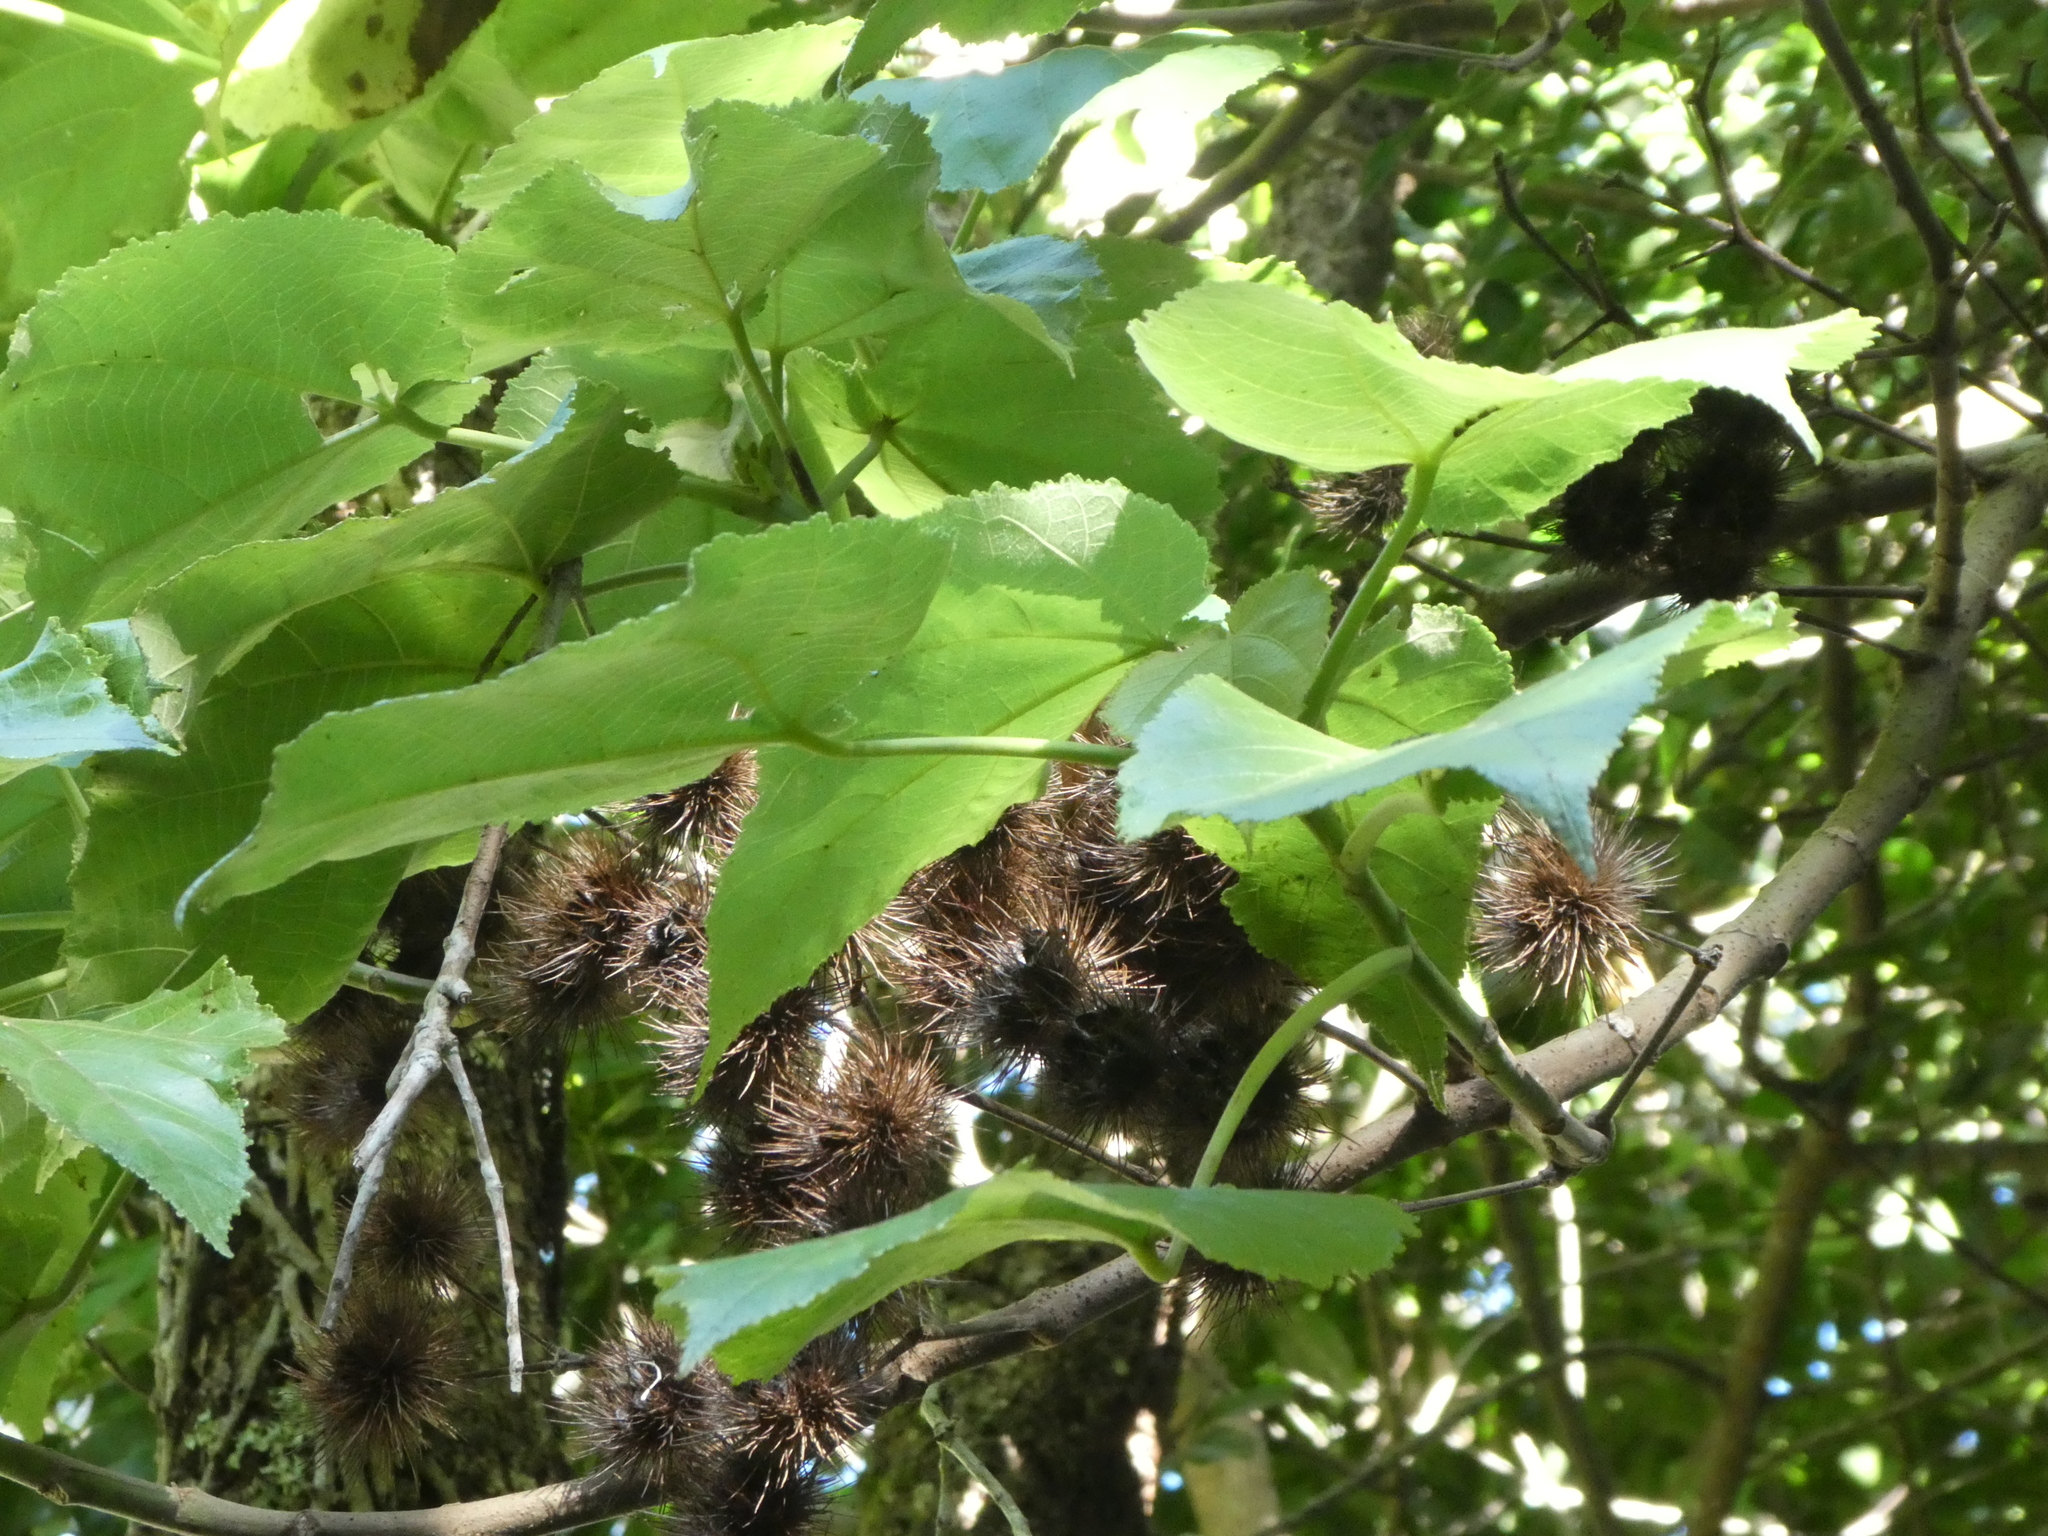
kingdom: Plantae
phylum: Tracheophyta
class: Magnoliopsida
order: Malvales
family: Malvaceae
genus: Entelea
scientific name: Entelea arborescens
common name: New zealand-mulberry
